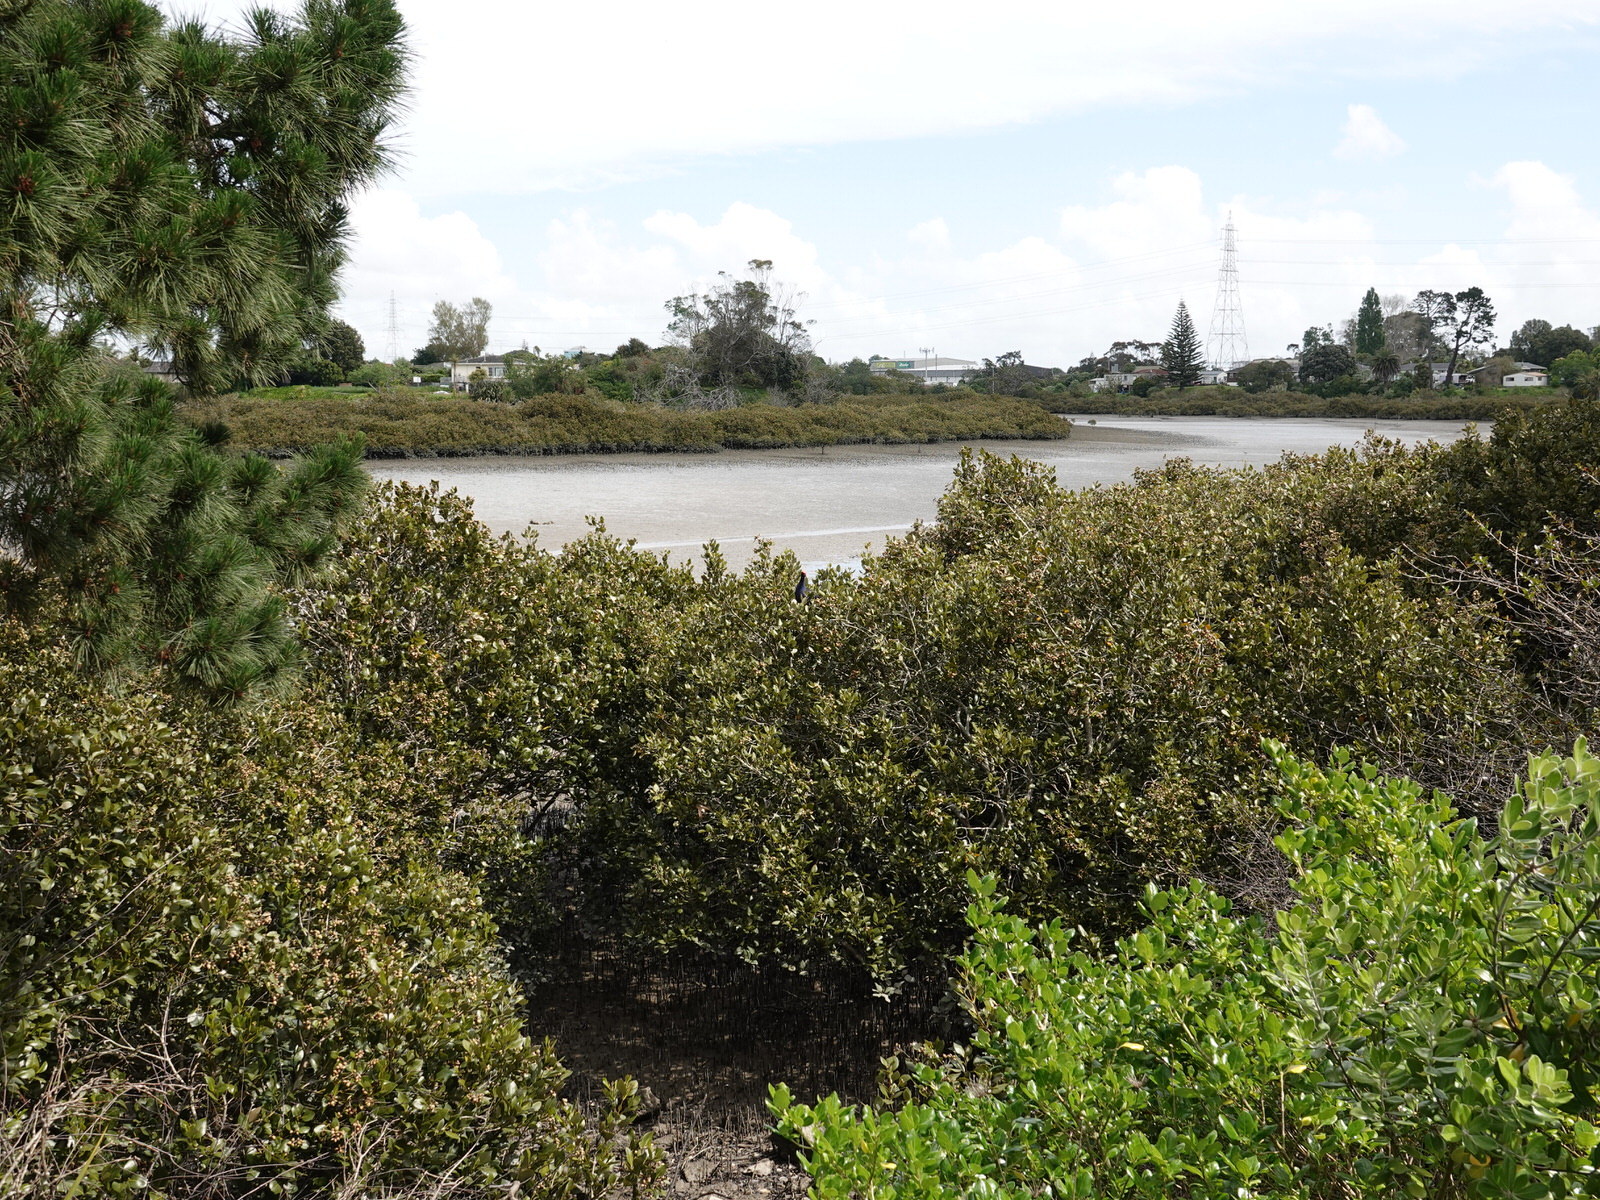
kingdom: Animalia
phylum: Chordata
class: Aves
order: Gruiformes
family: Rallidae
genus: Porphyrio
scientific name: Porphyrio melanotus
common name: Australasian swamphen
